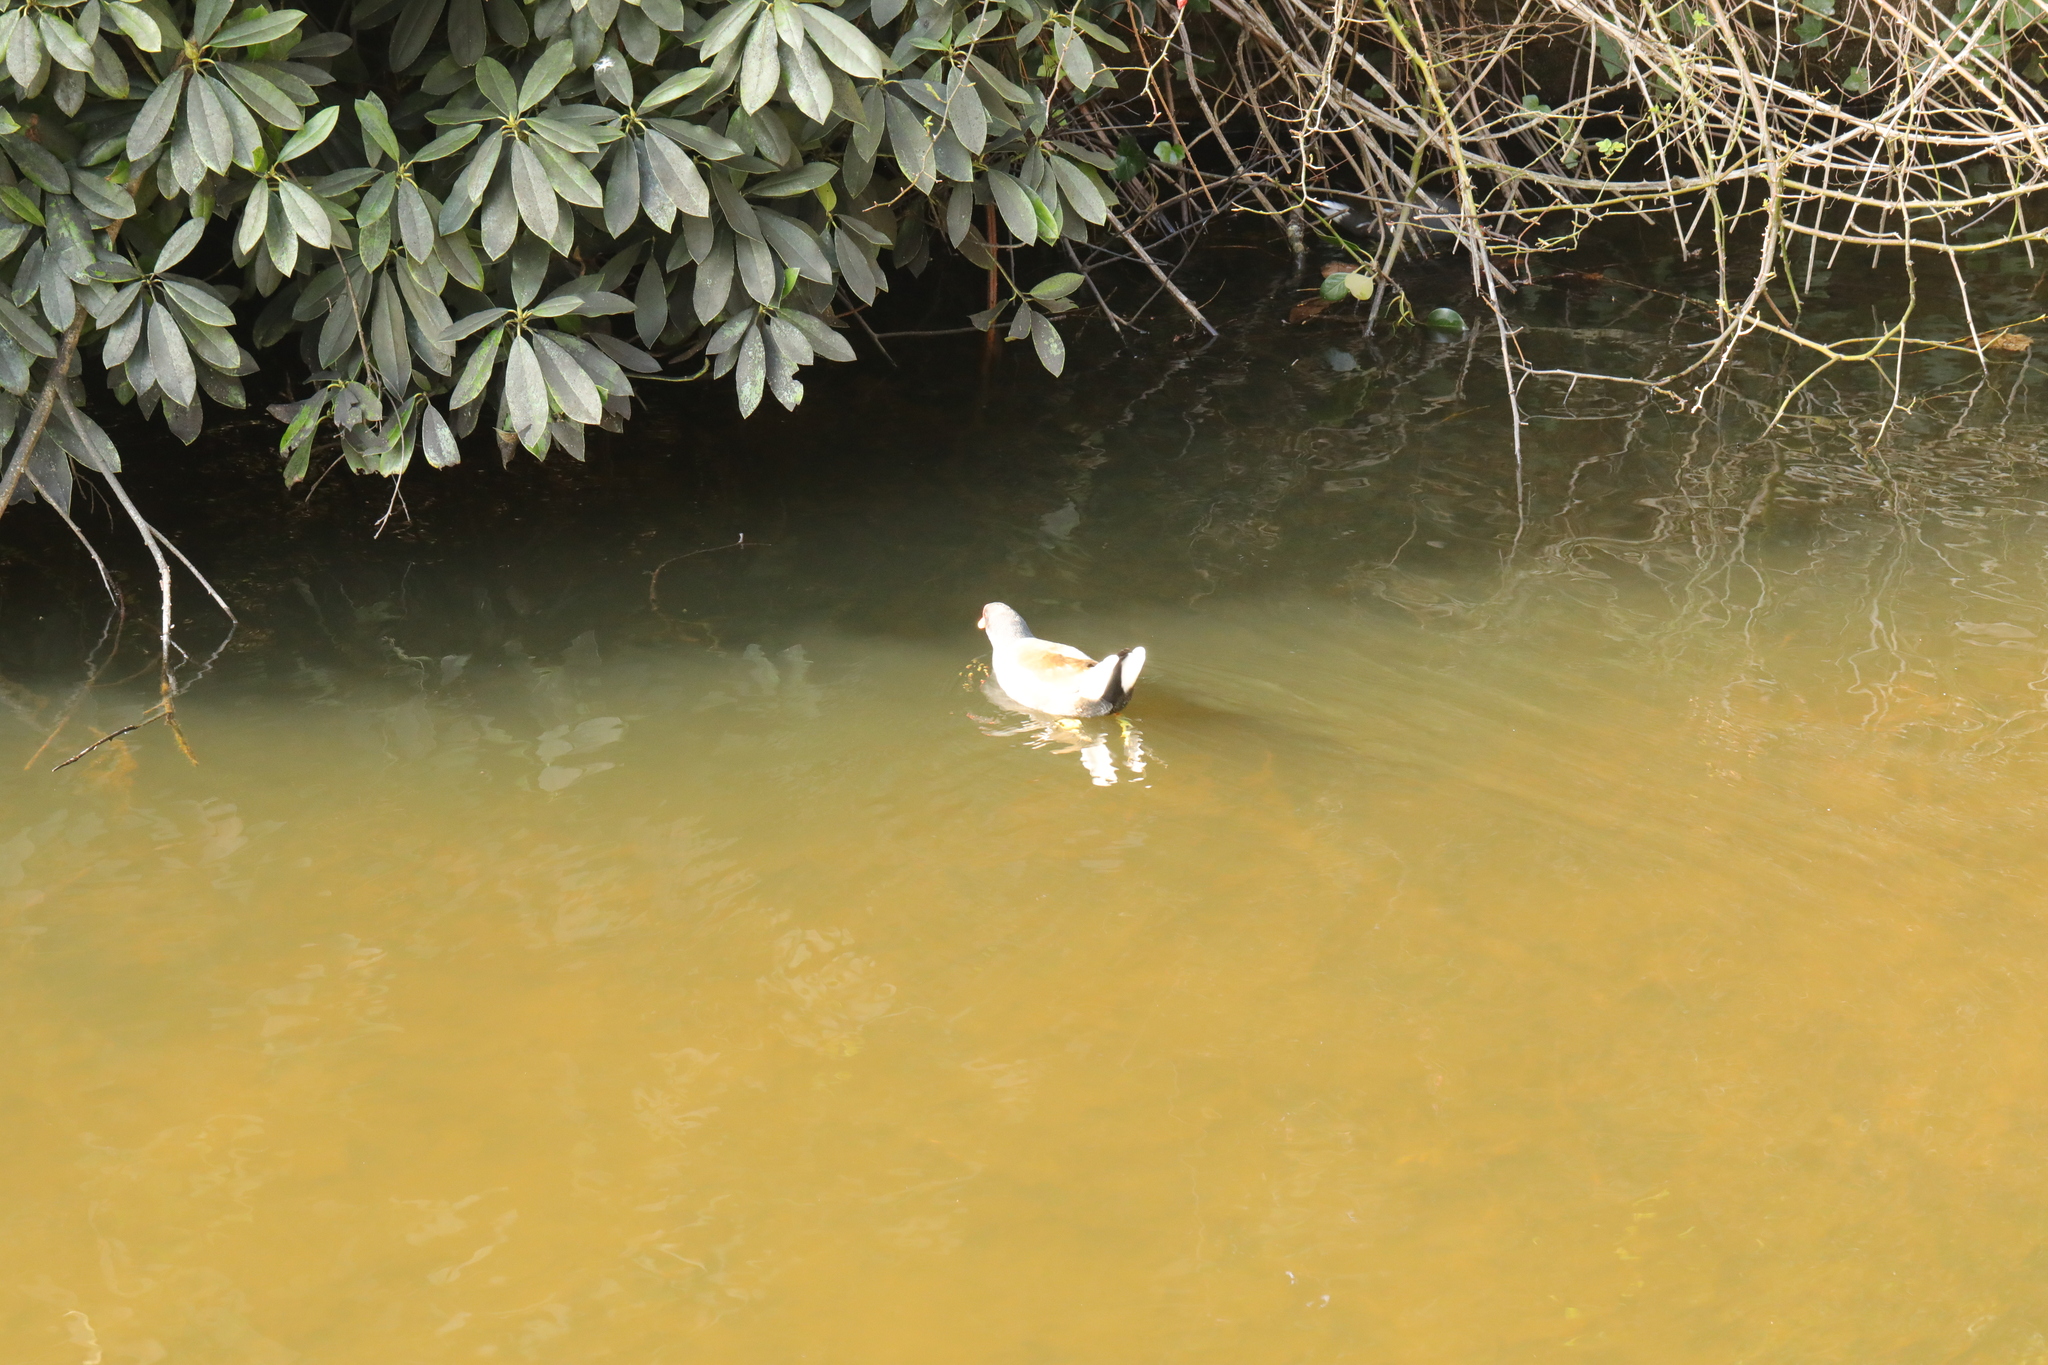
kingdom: Animalia
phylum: Chordata
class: Aves
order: Gruiformes
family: Rallidae
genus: Gallinula
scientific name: Gallinula chloropus
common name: Common moorhen
